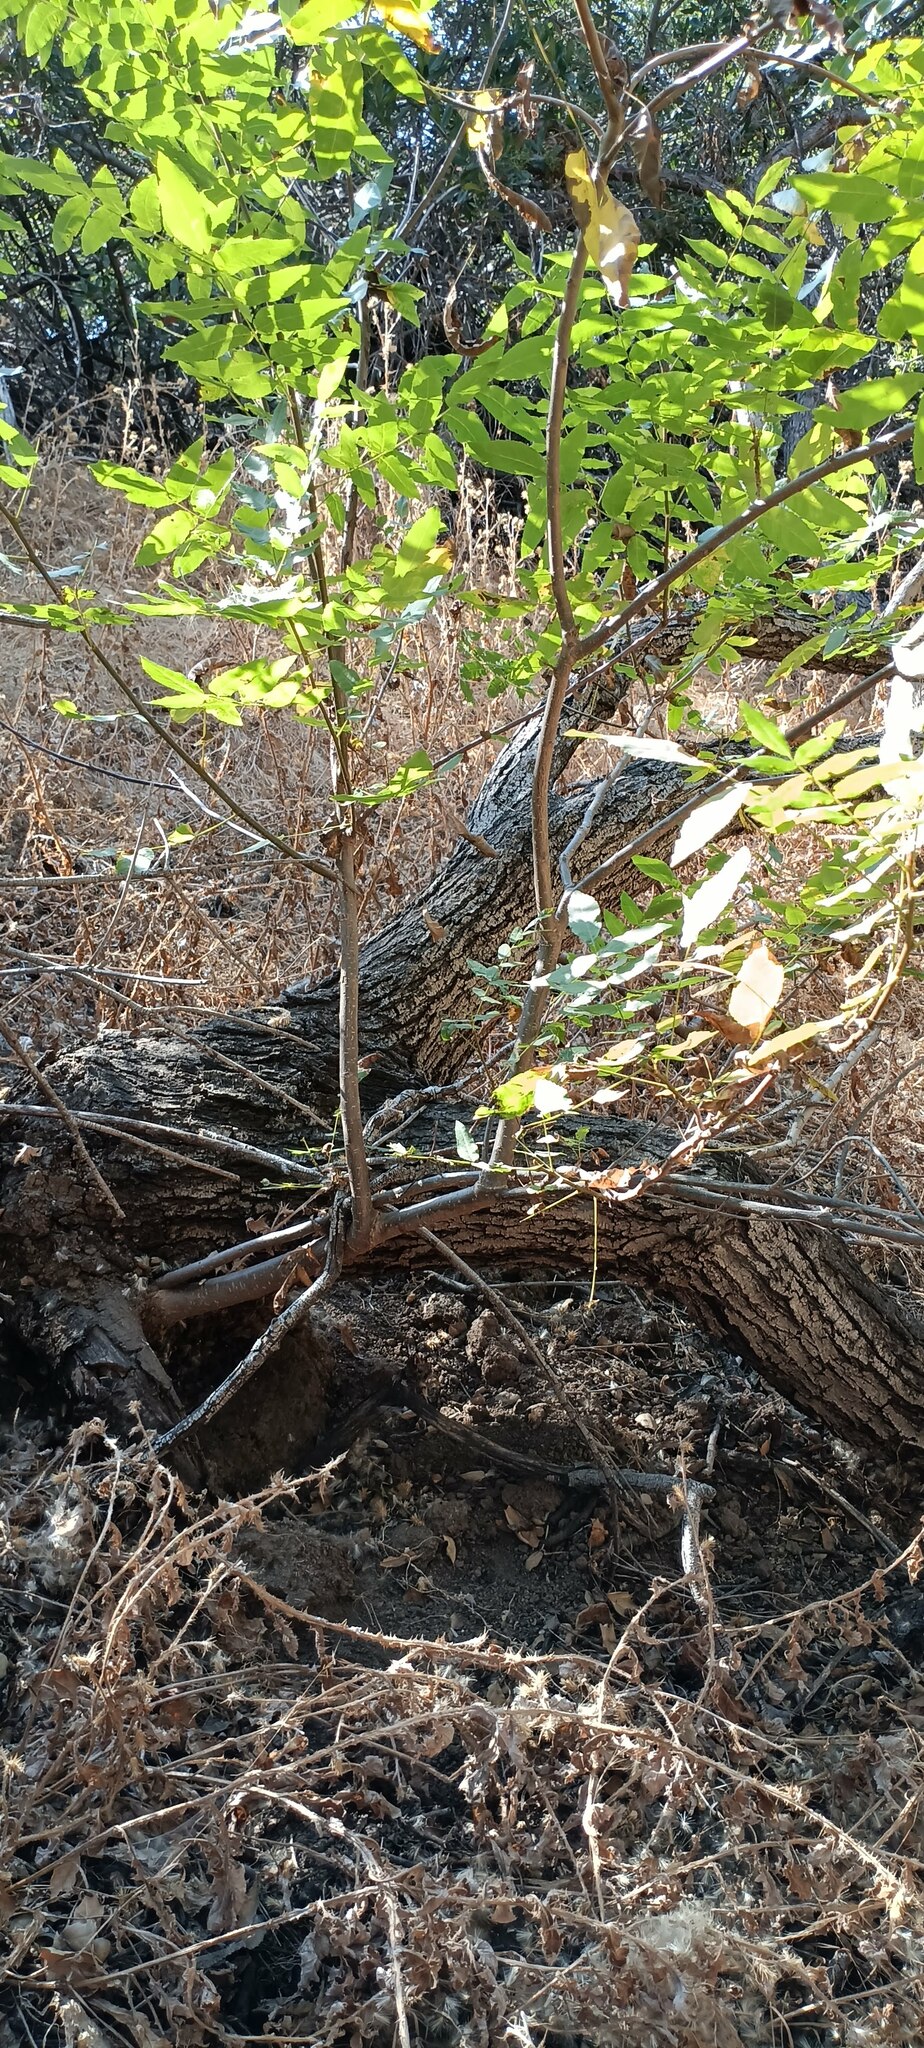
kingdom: Plantae
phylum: Tracheophyta
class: Magnoliopsida
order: Fagales
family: Juglandaceae
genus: Juglans
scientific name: Juglans californica
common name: Southern california black walnut
